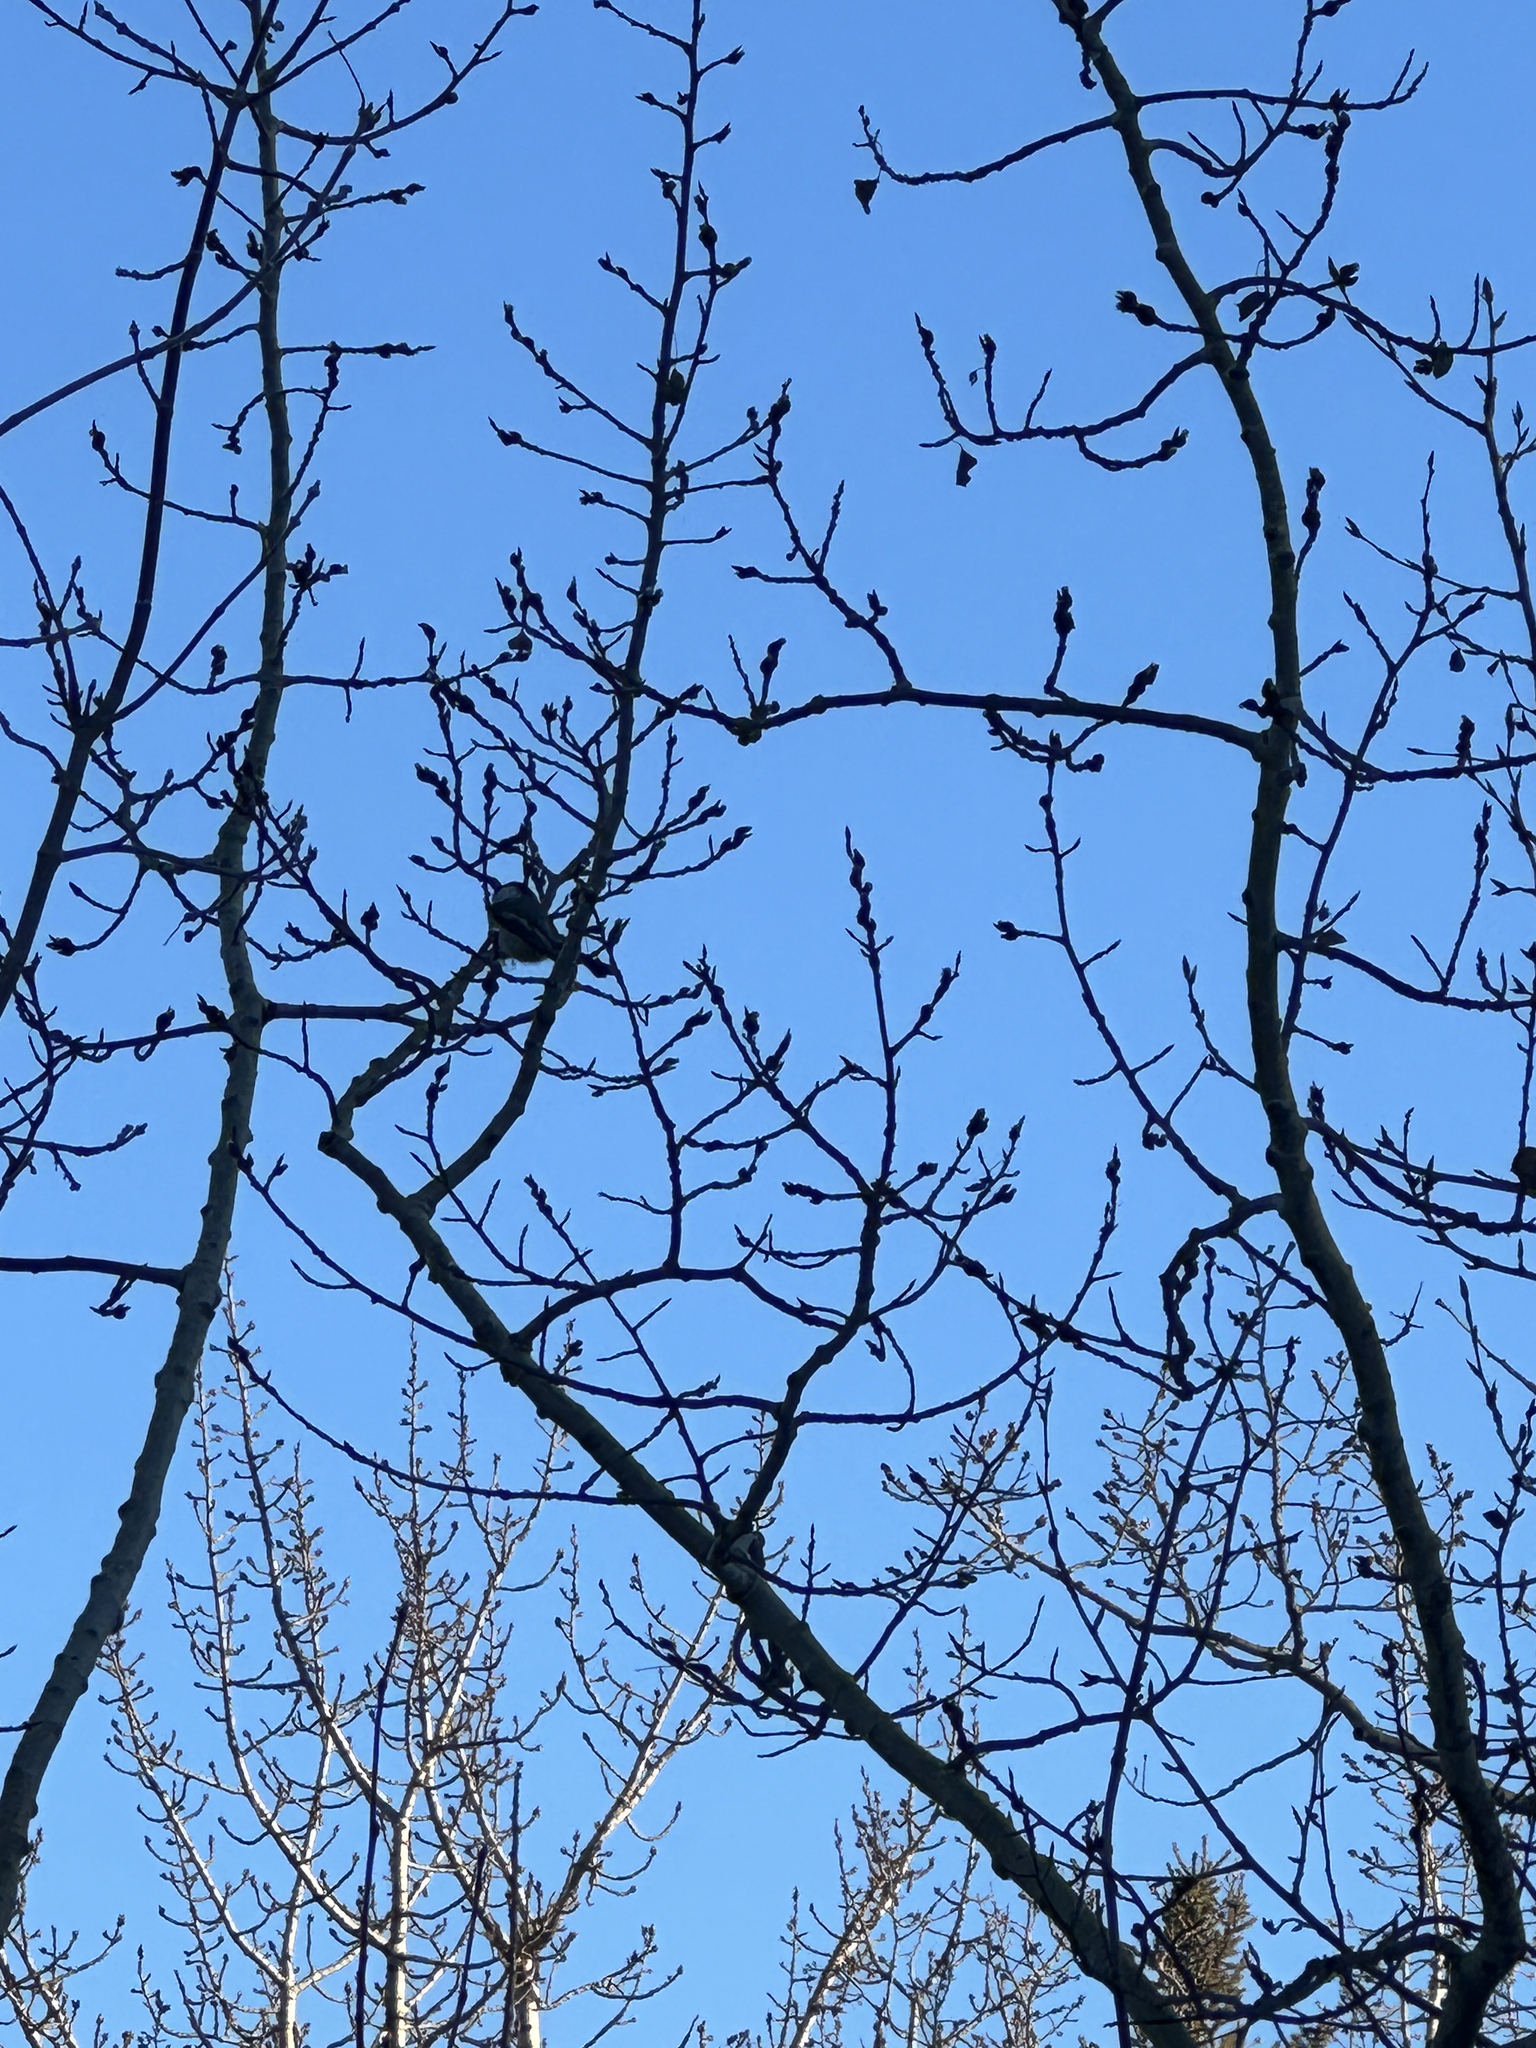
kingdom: Animalia
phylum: Chordata
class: Aves
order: Passeriformes
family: Paridae
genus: Poecile
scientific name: Poecile atricapillus
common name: Black-capped chickadee
